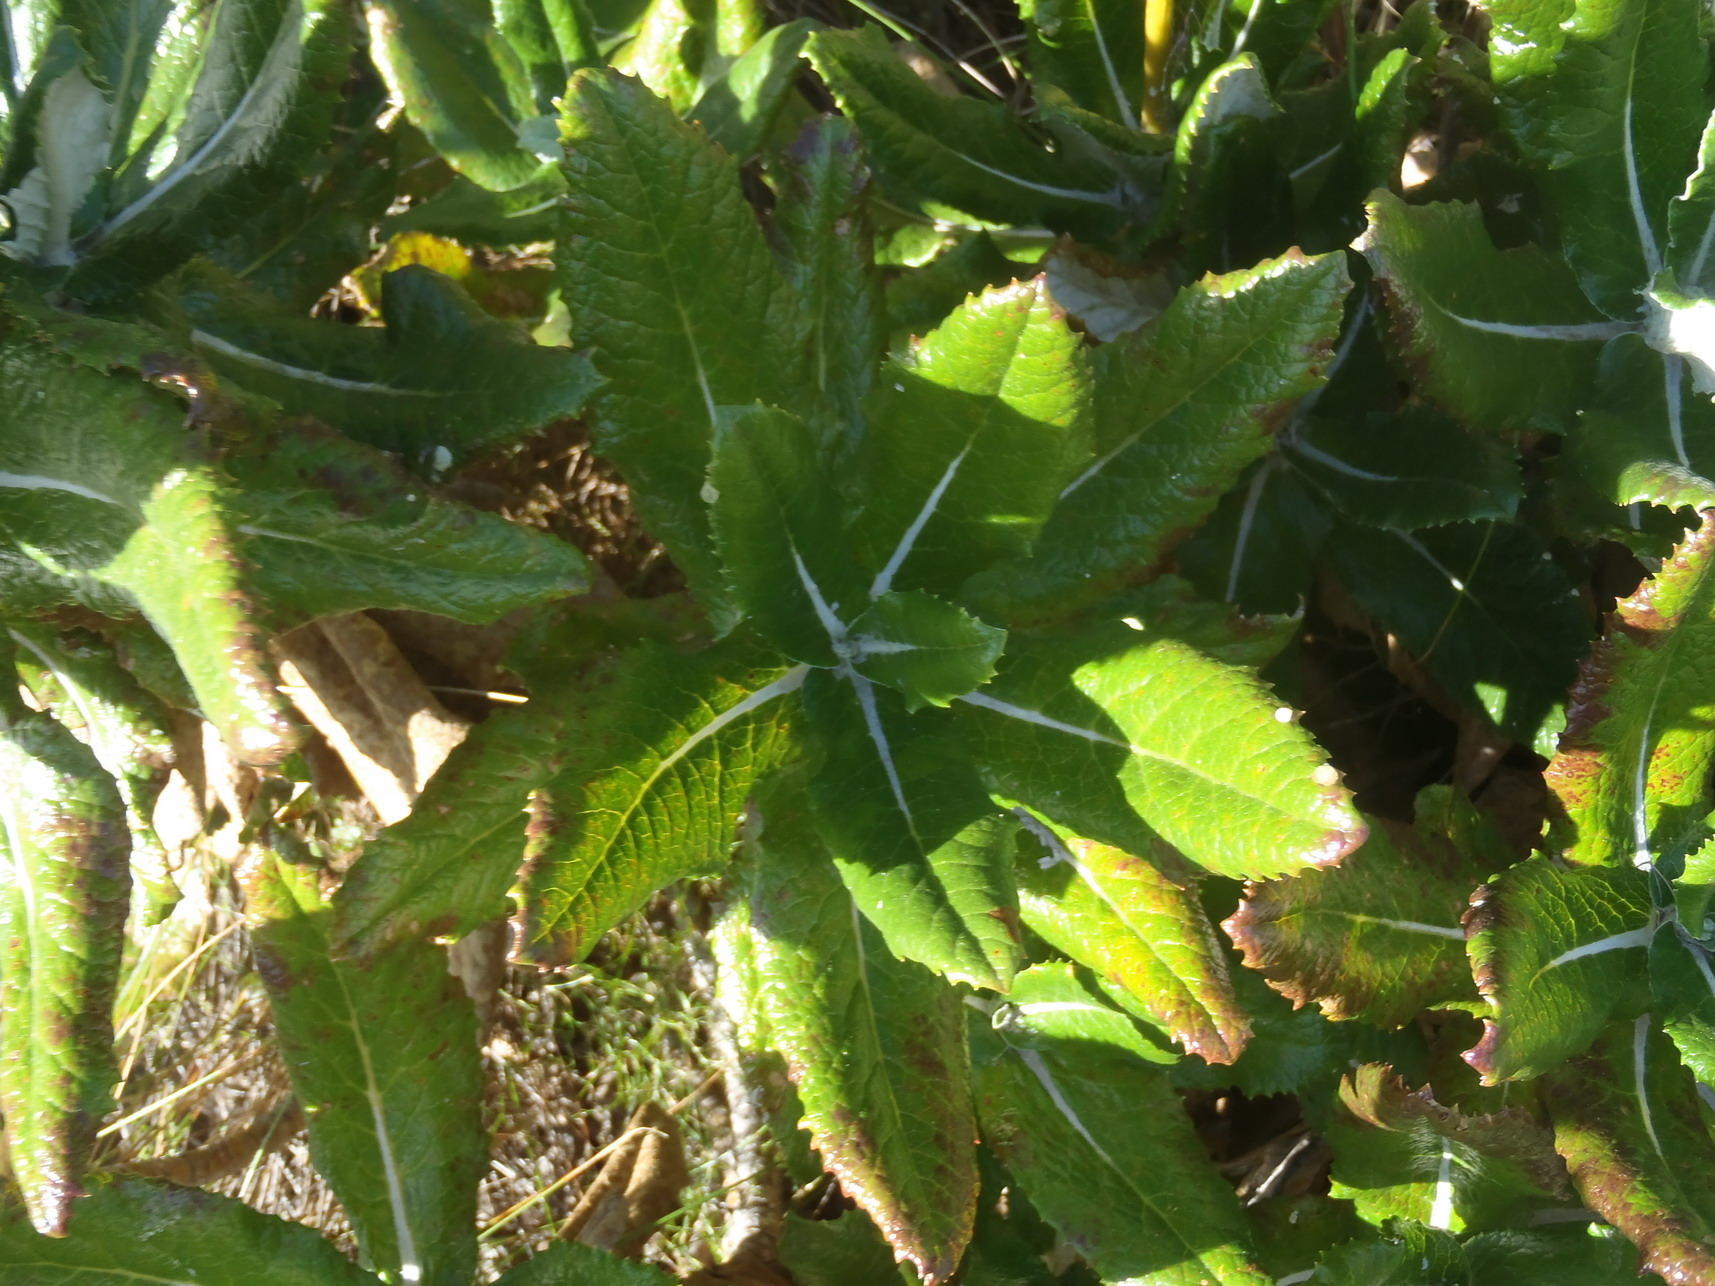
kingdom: Plantae
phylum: Tracheophyta
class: Magnoliopsida
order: Apiales
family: Apiaceae
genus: Hermas
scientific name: Hermas villosa
